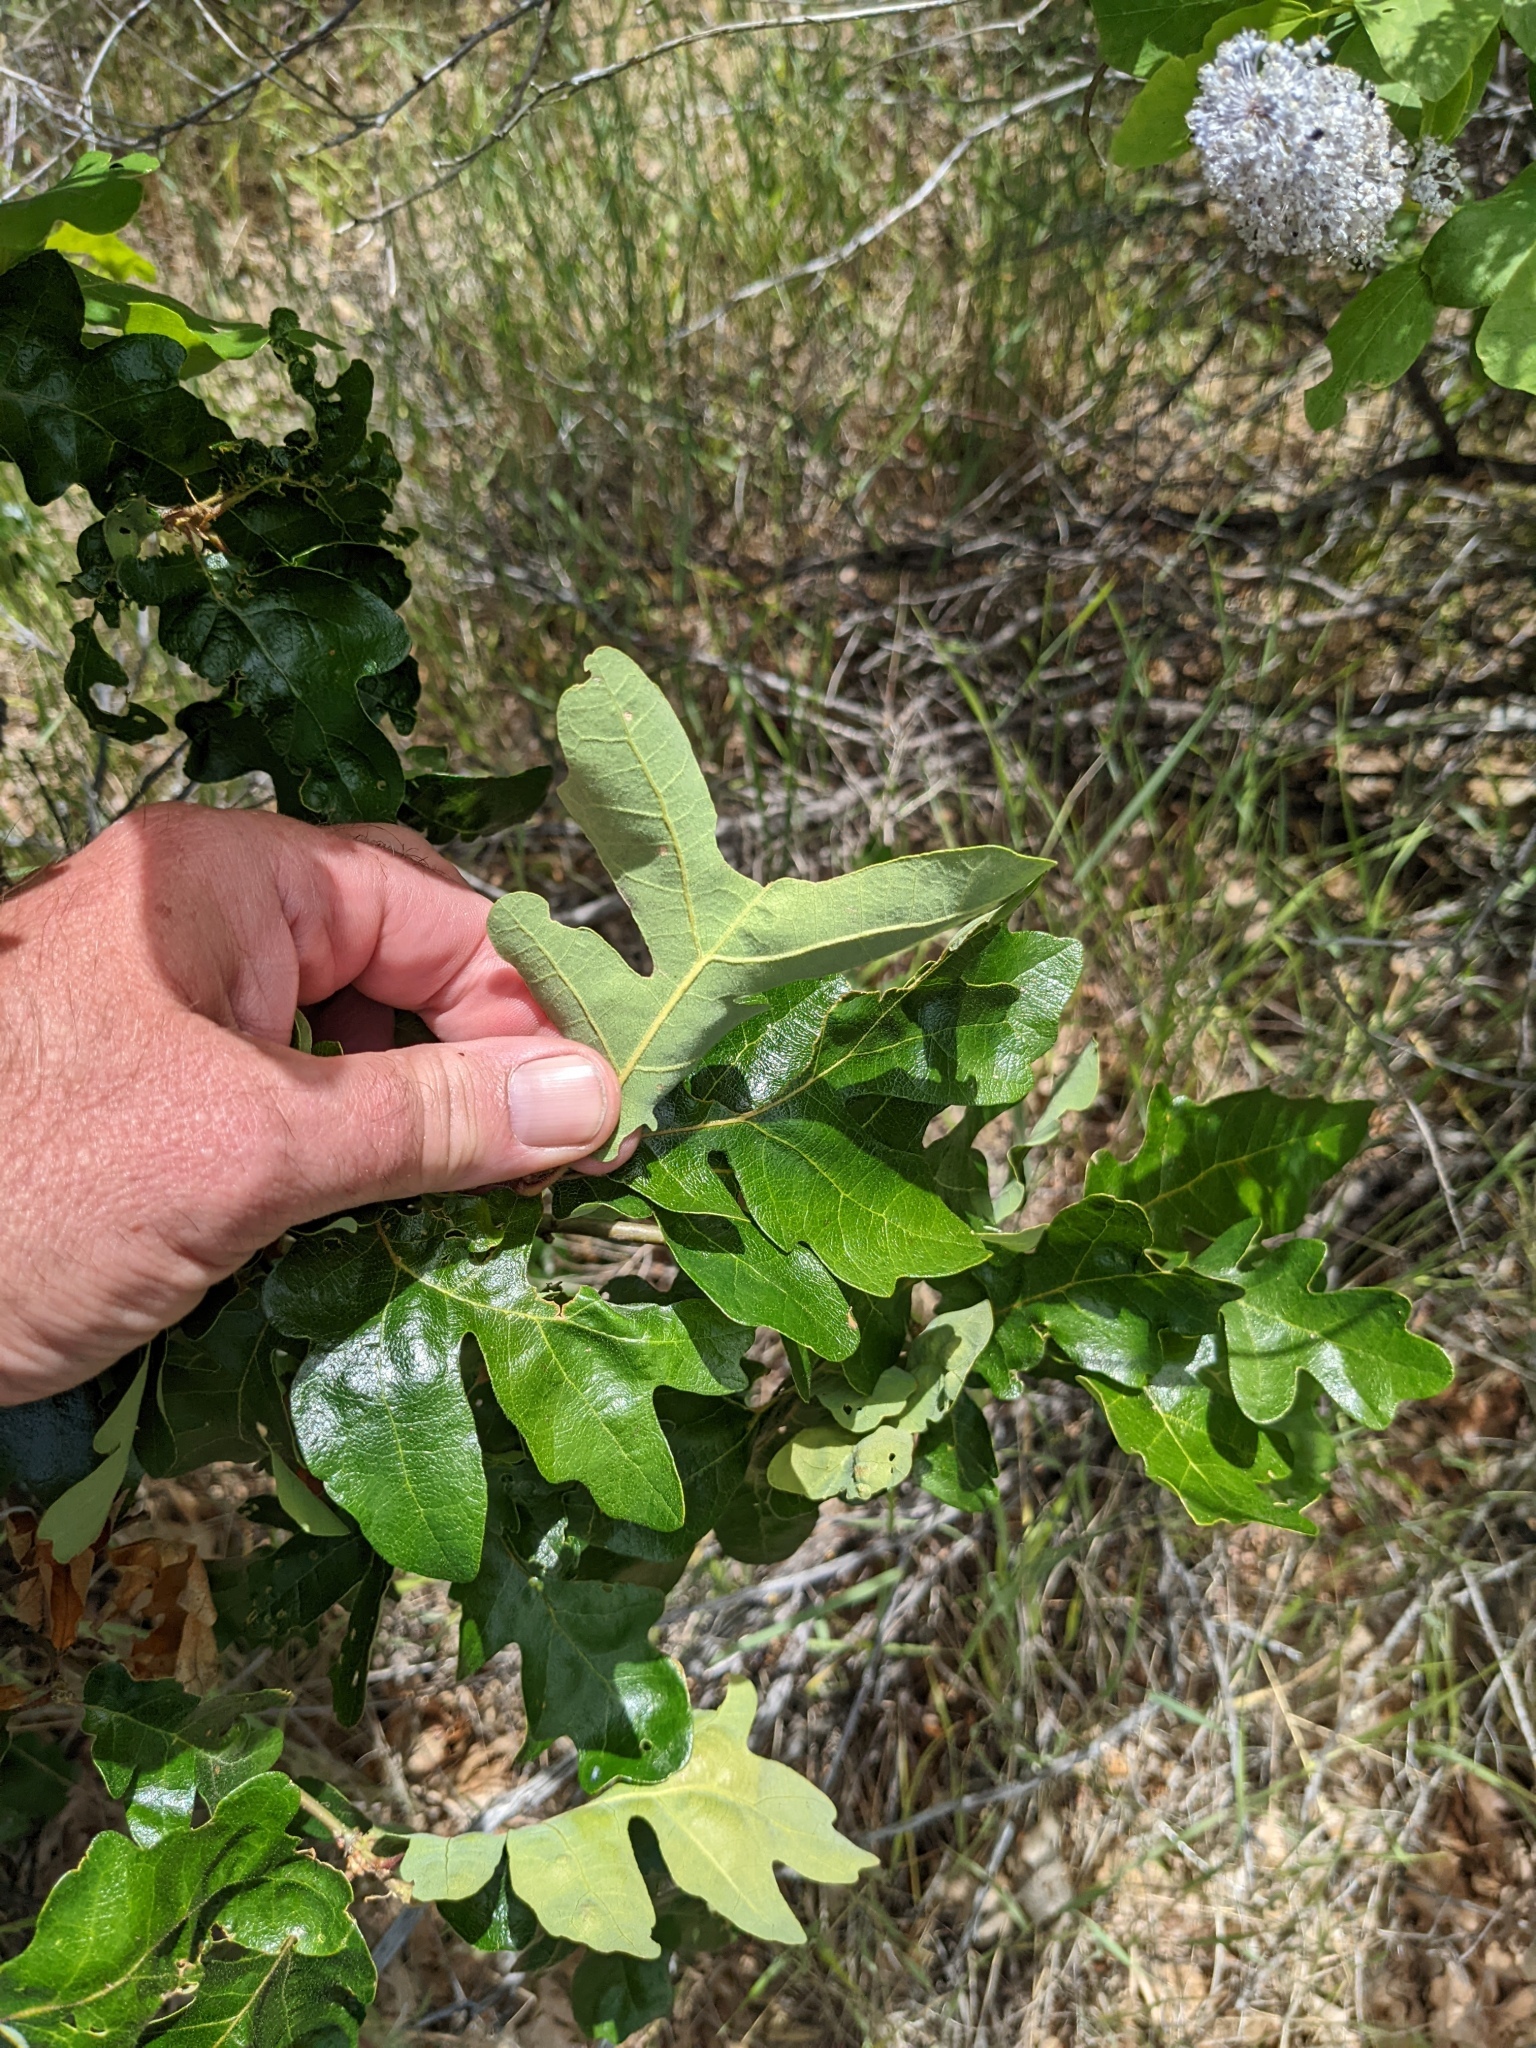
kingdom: Plantae
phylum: Tracheophyta
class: Magnoliopsida
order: Fagales
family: Fagaceae
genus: Quercus
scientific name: Quercus garryana
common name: Garry oak
